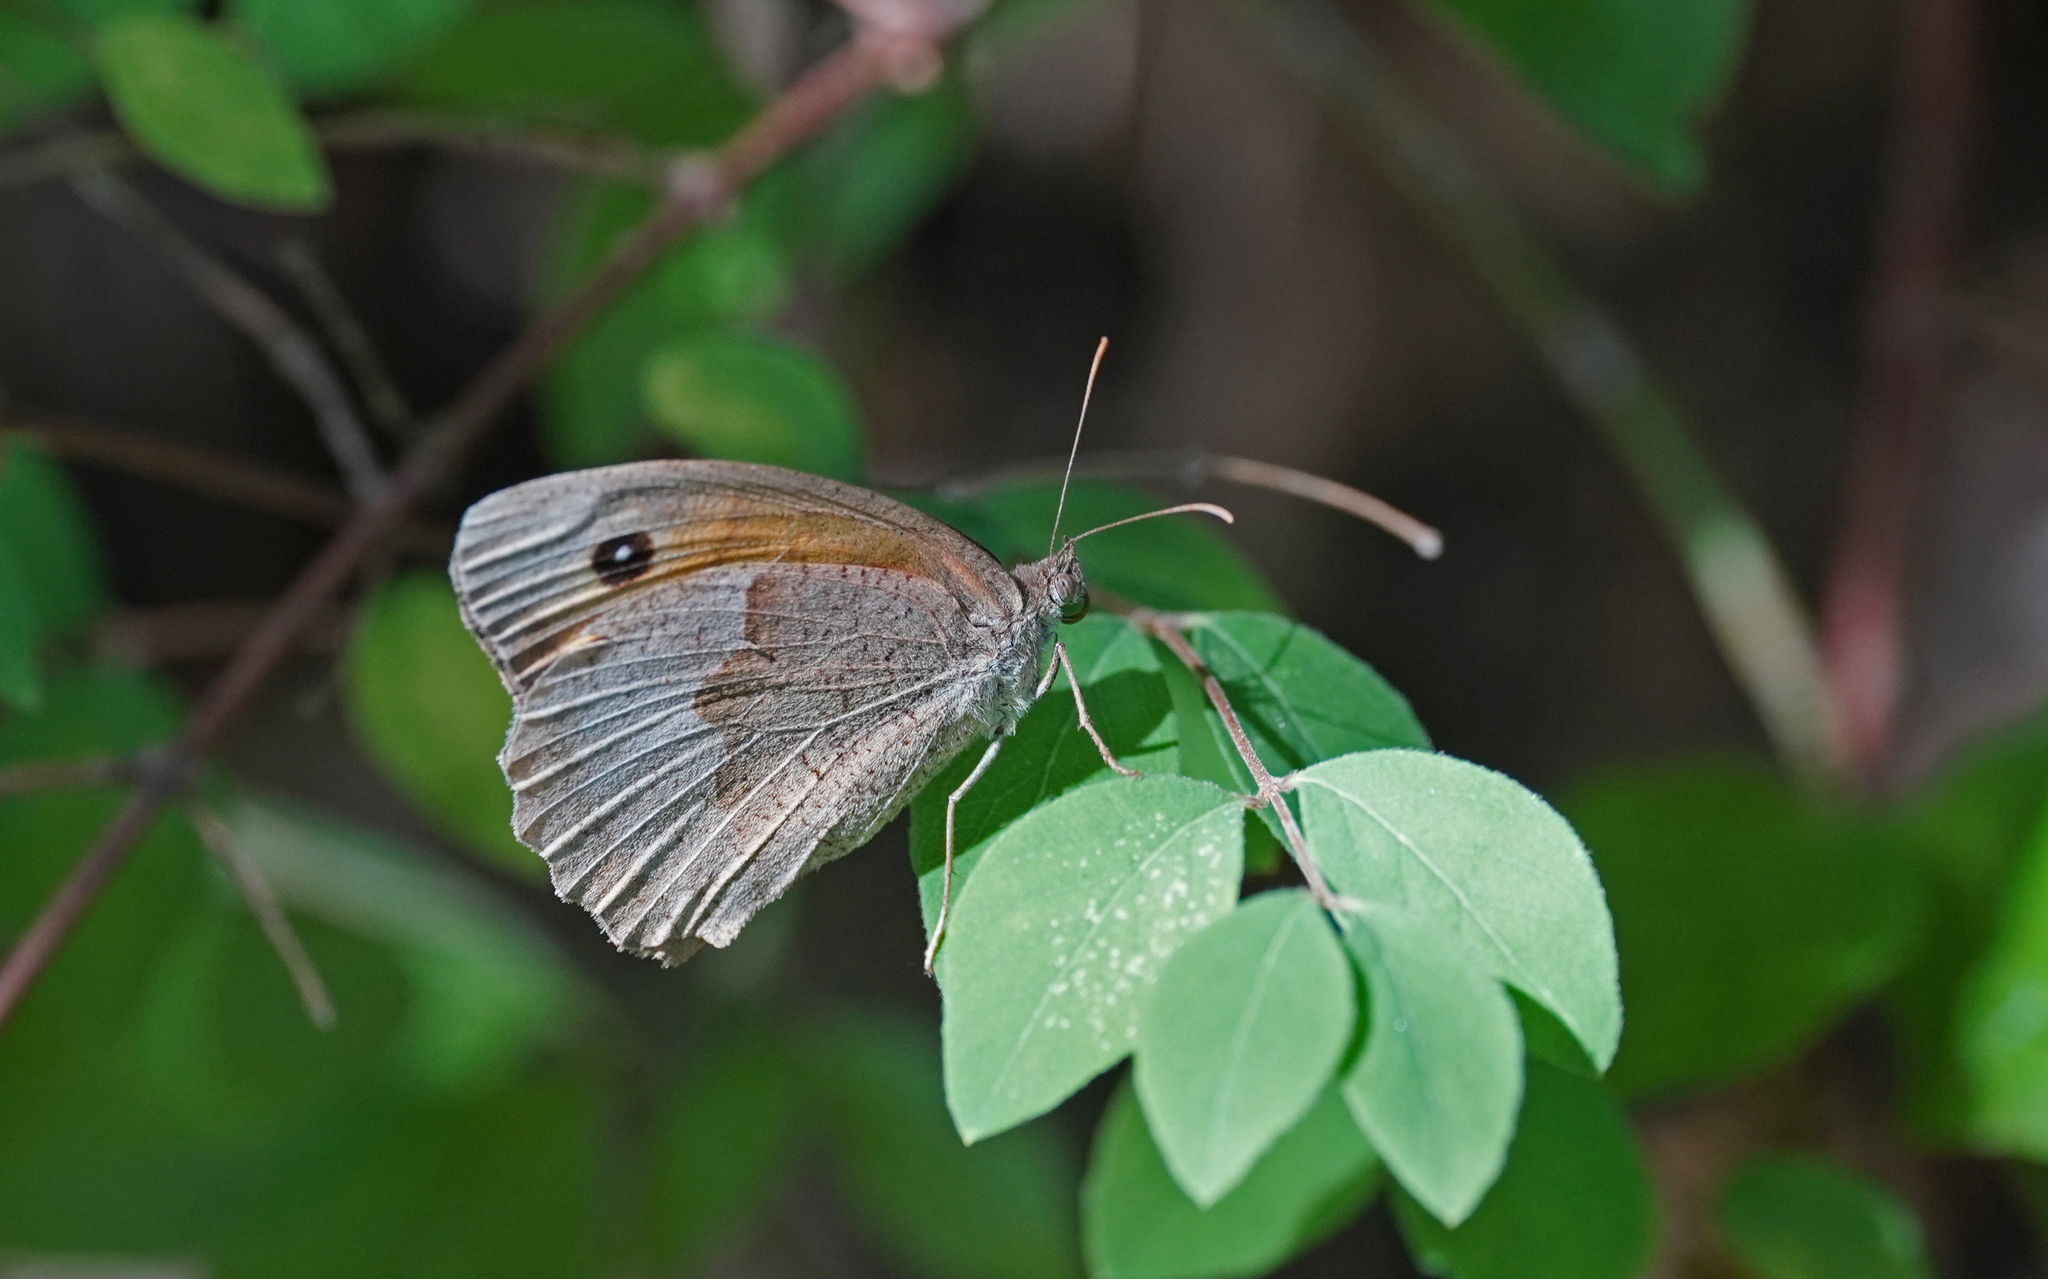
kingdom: Animalia
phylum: Arthropoda
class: Insecta
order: Lepidoptera
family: Nymphalidae
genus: Maniola
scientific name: Maniola jurtina
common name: Meadow brown
